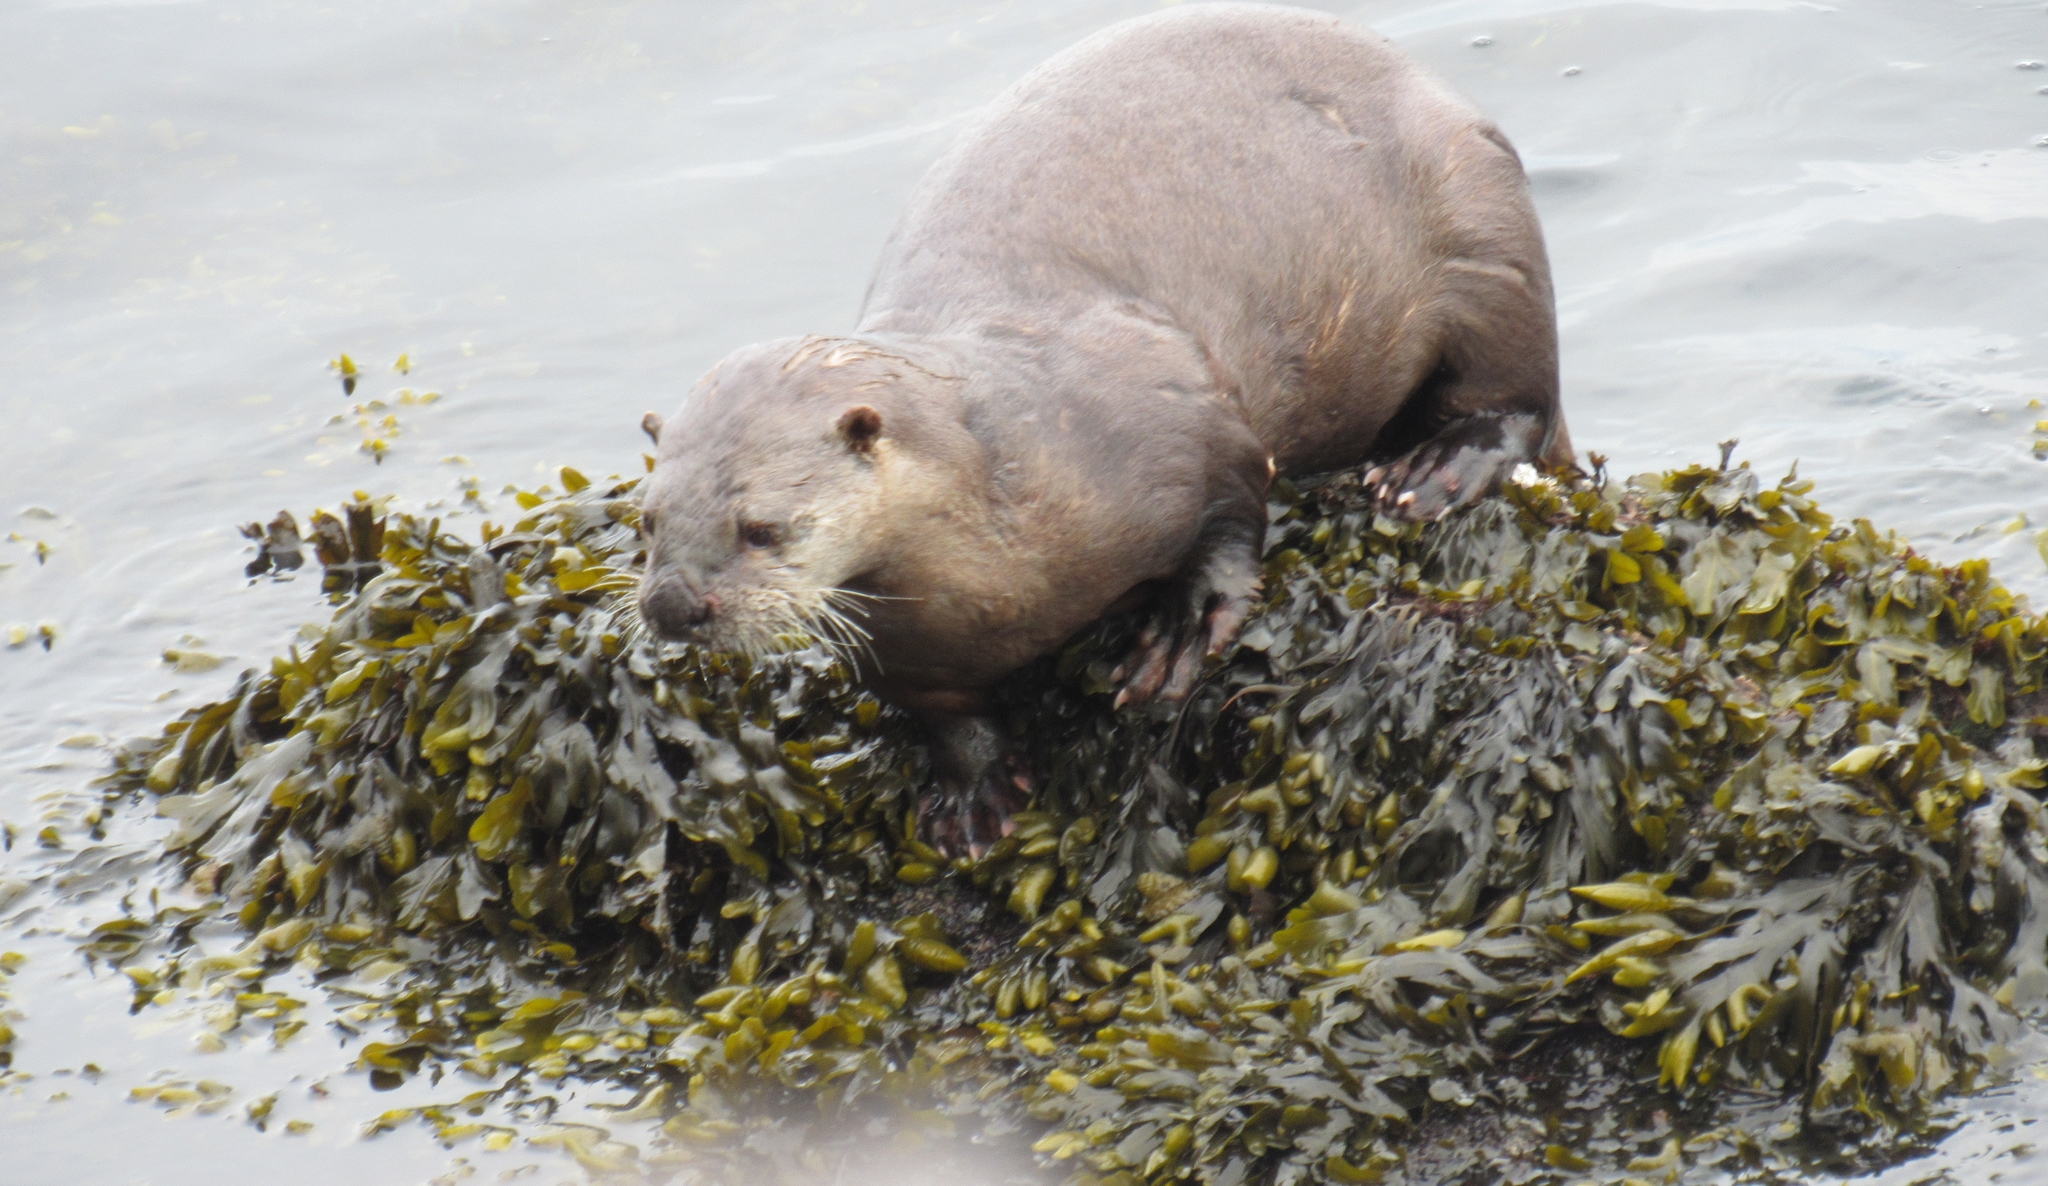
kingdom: Animalia
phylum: Chordata
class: Mammalia
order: Carnivora
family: Mustelidae
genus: Lontra
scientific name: Lontra canadensis
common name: North american river otter
